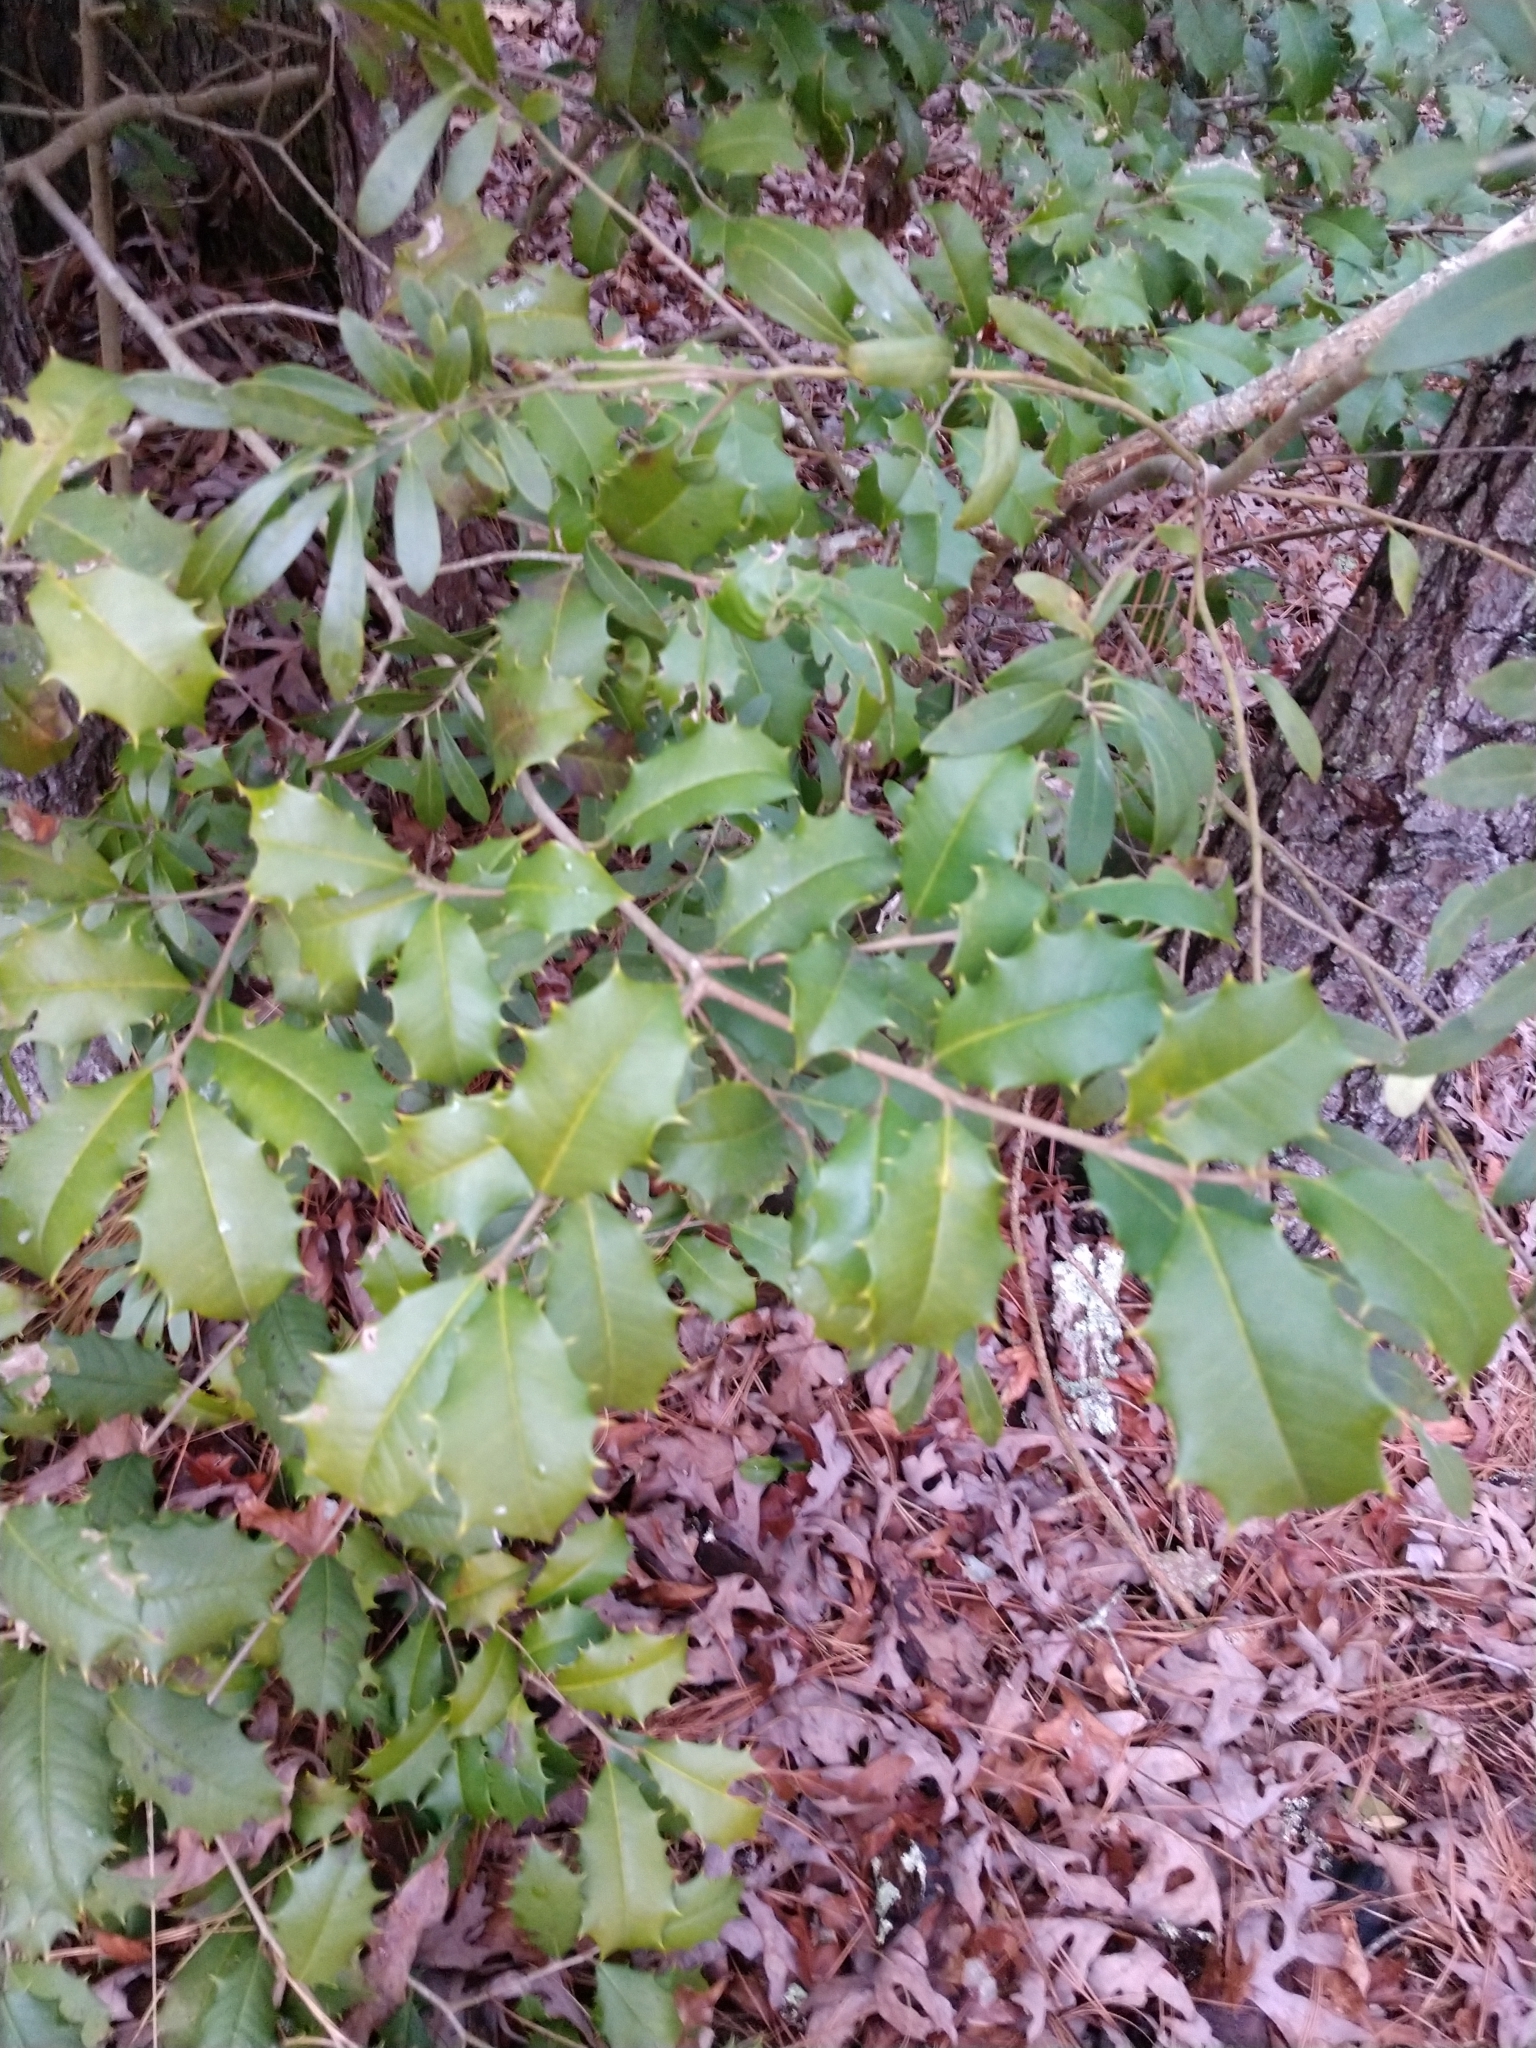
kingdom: Plantae
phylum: Tracheophyta
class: Magnoliopsida
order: Aquifoliales
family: Aquifoliaceae
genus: Ilex
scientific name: Ilex opaca
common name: American holly
